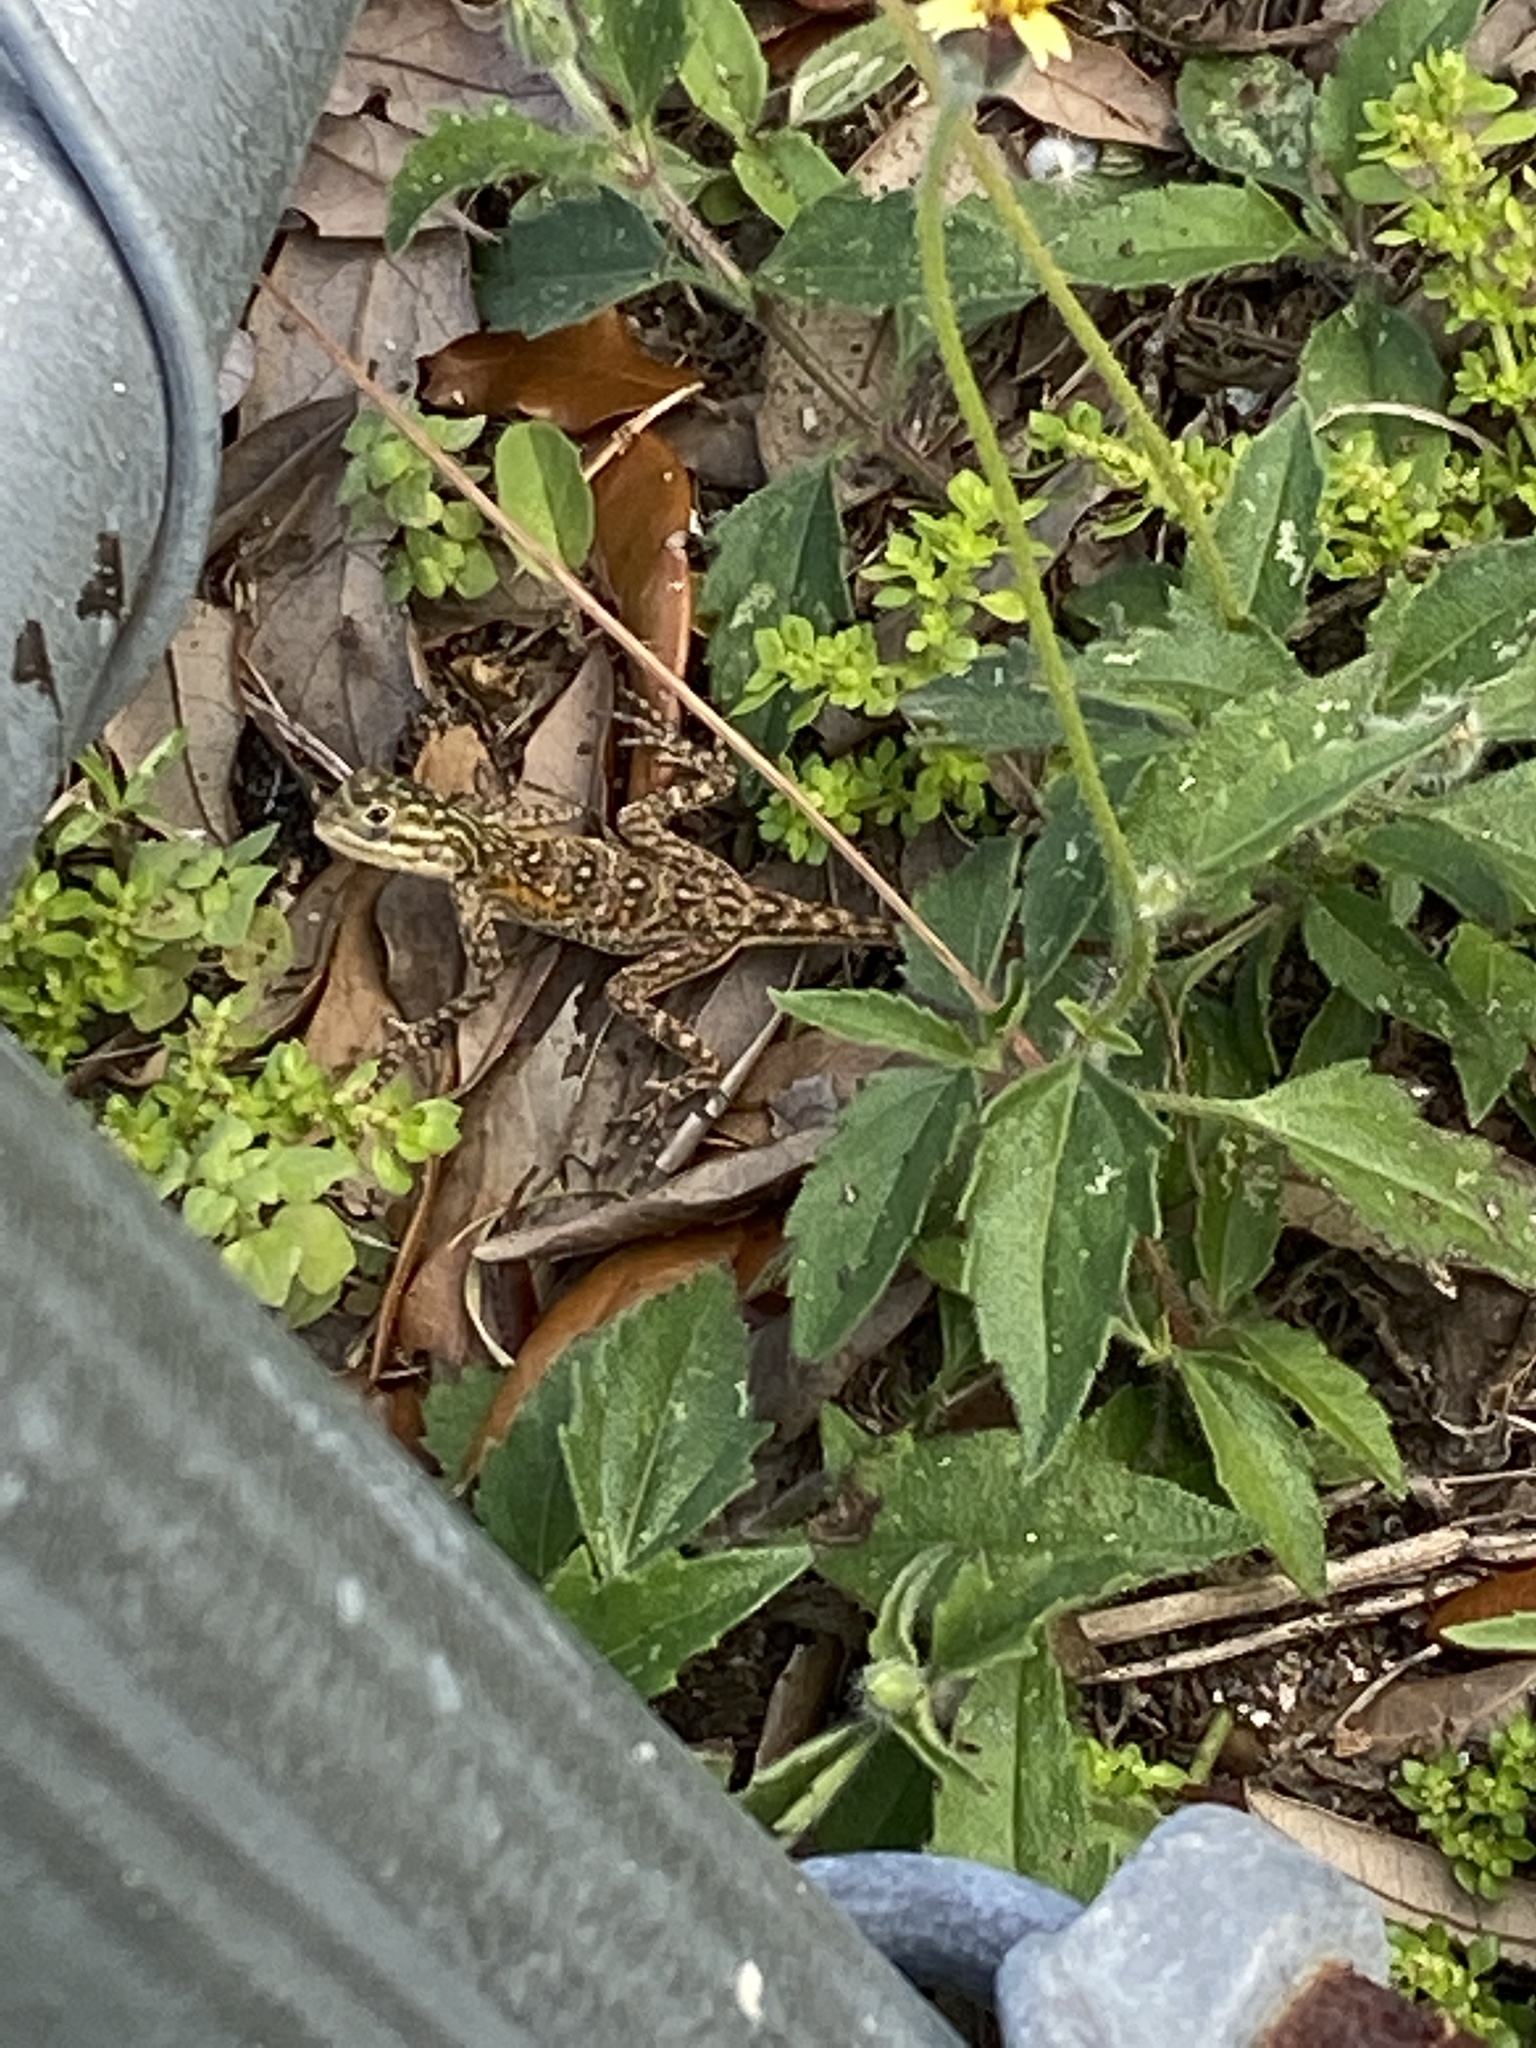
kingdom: Animalia
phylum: Chordata
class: Squamata
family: Agamidae
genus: Agama
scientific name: Agama picticauda
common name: Red-headed agama
